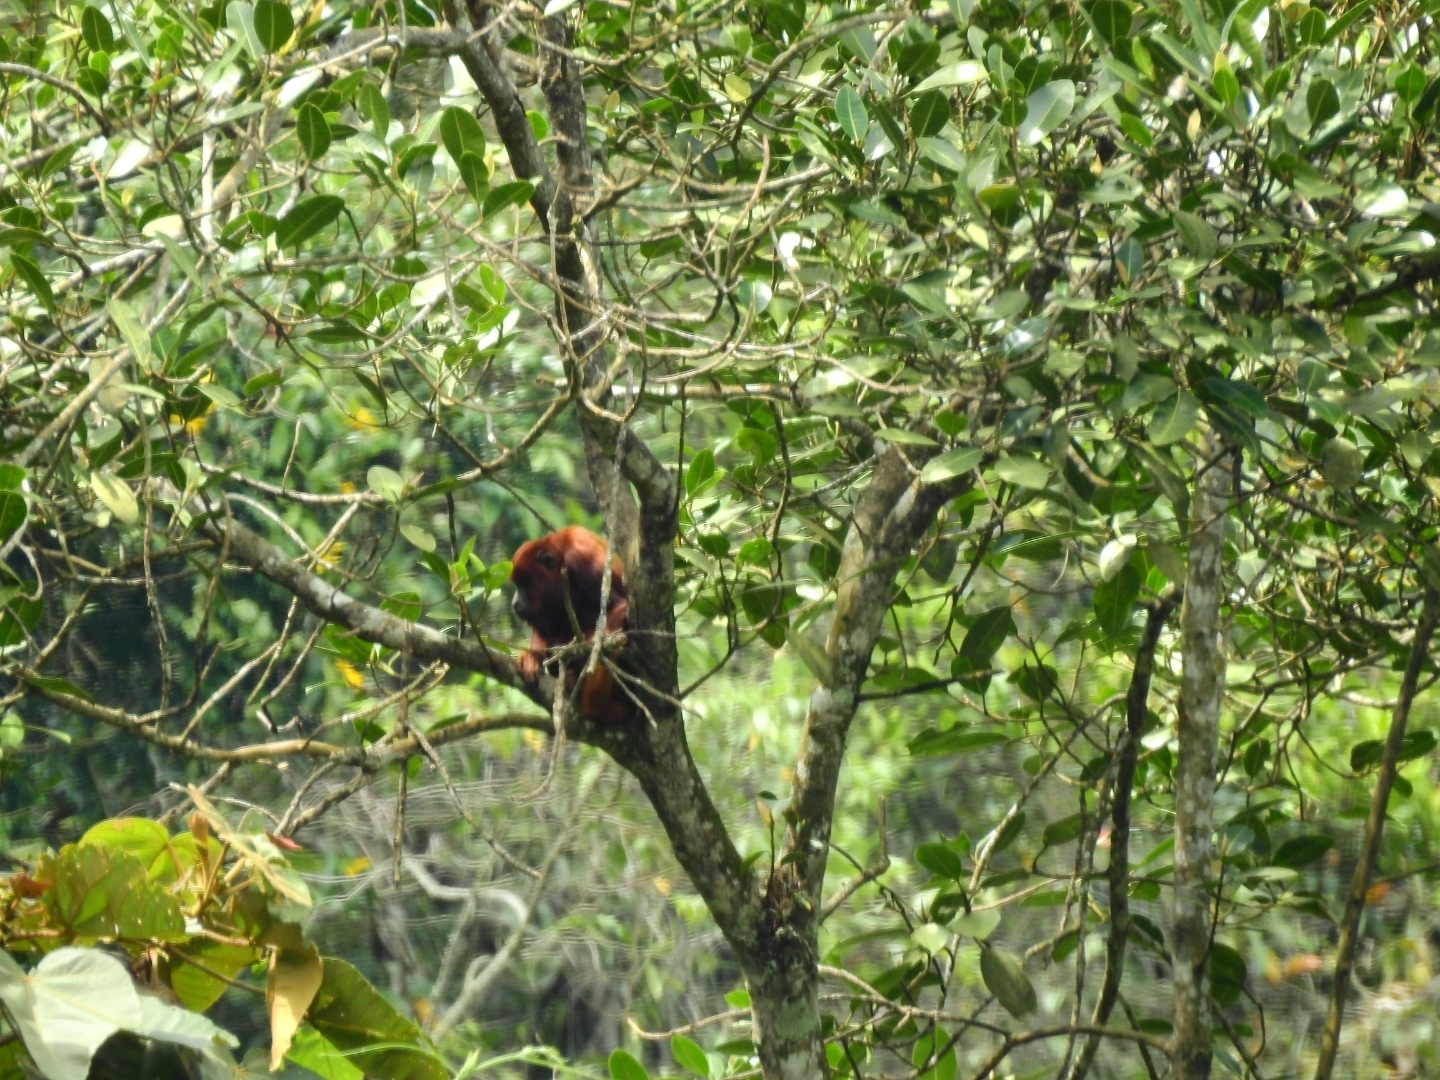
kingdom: Animalia
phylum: Chordata
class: Mammalia
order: Primates
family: Atelidae
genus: Alouatta
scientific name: Alouatta seniculus
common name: Venezuelan red howler
